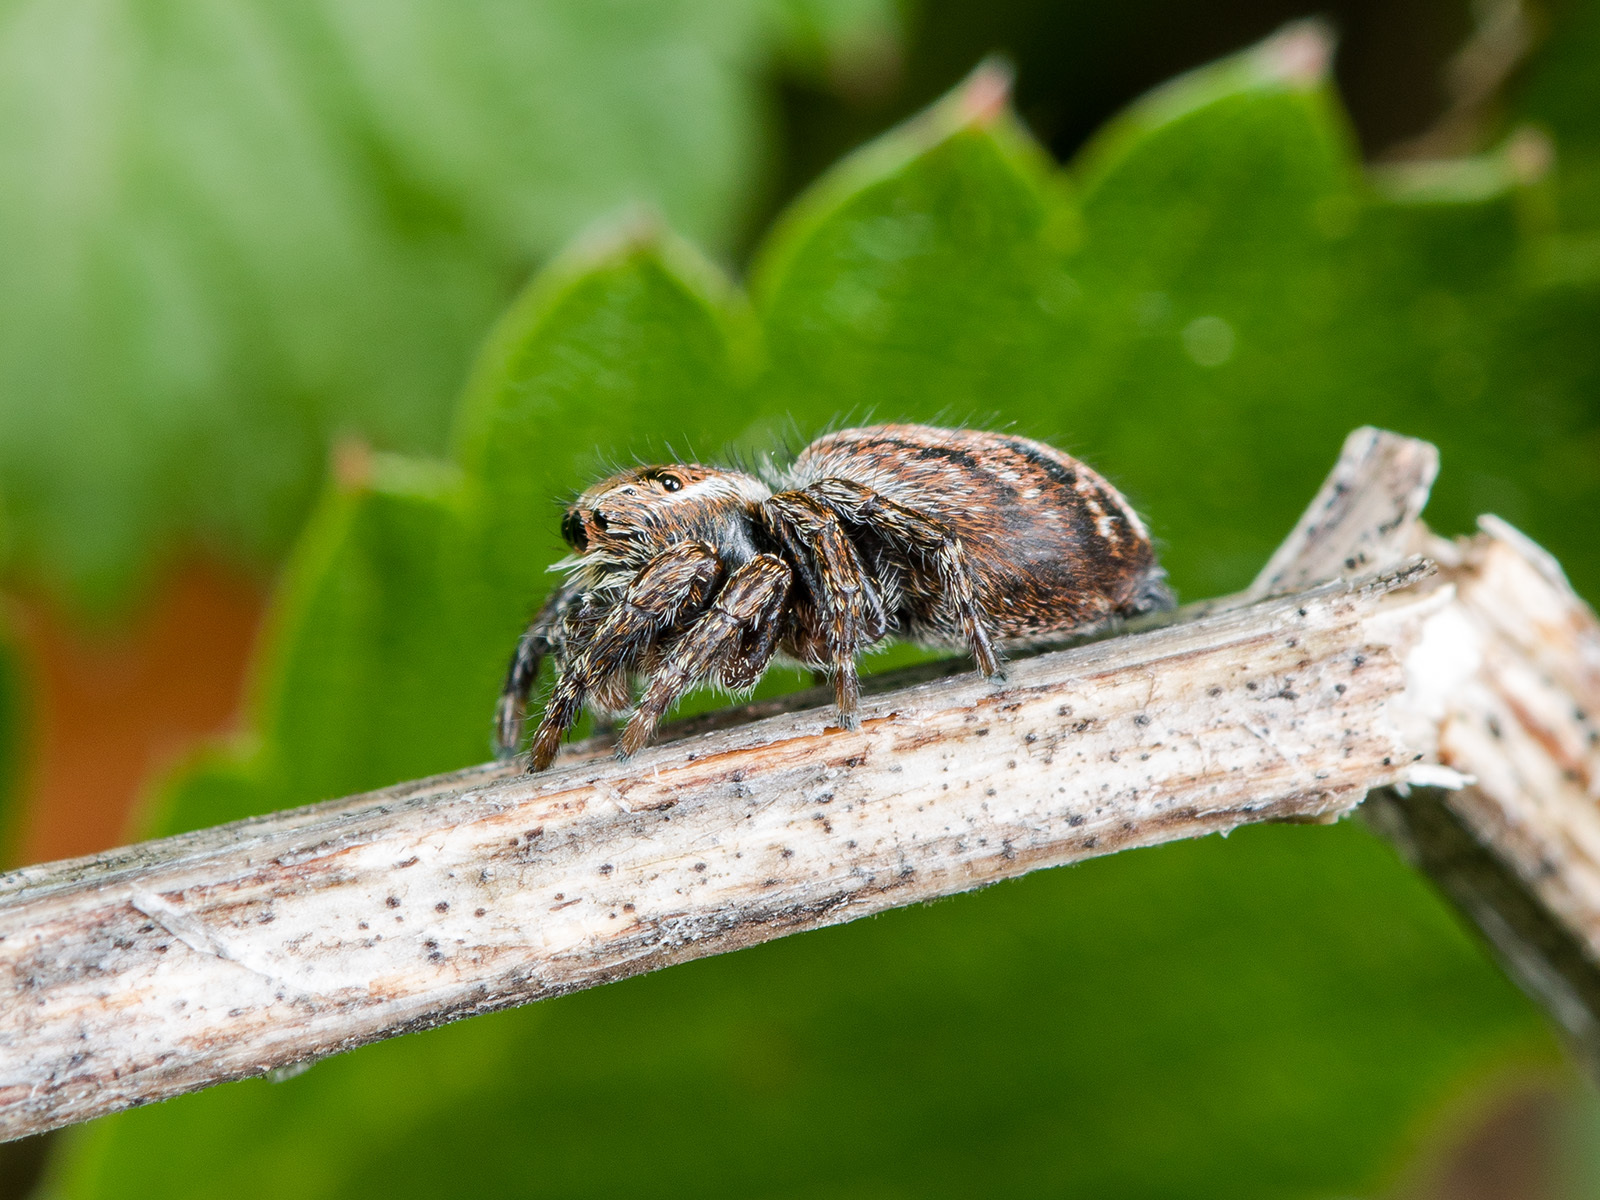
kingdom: Animalia
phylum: Arthropoda
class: Arachnida
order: Araneae
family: Salticidae
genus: Evarcha
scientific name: Evarcha michailovi
